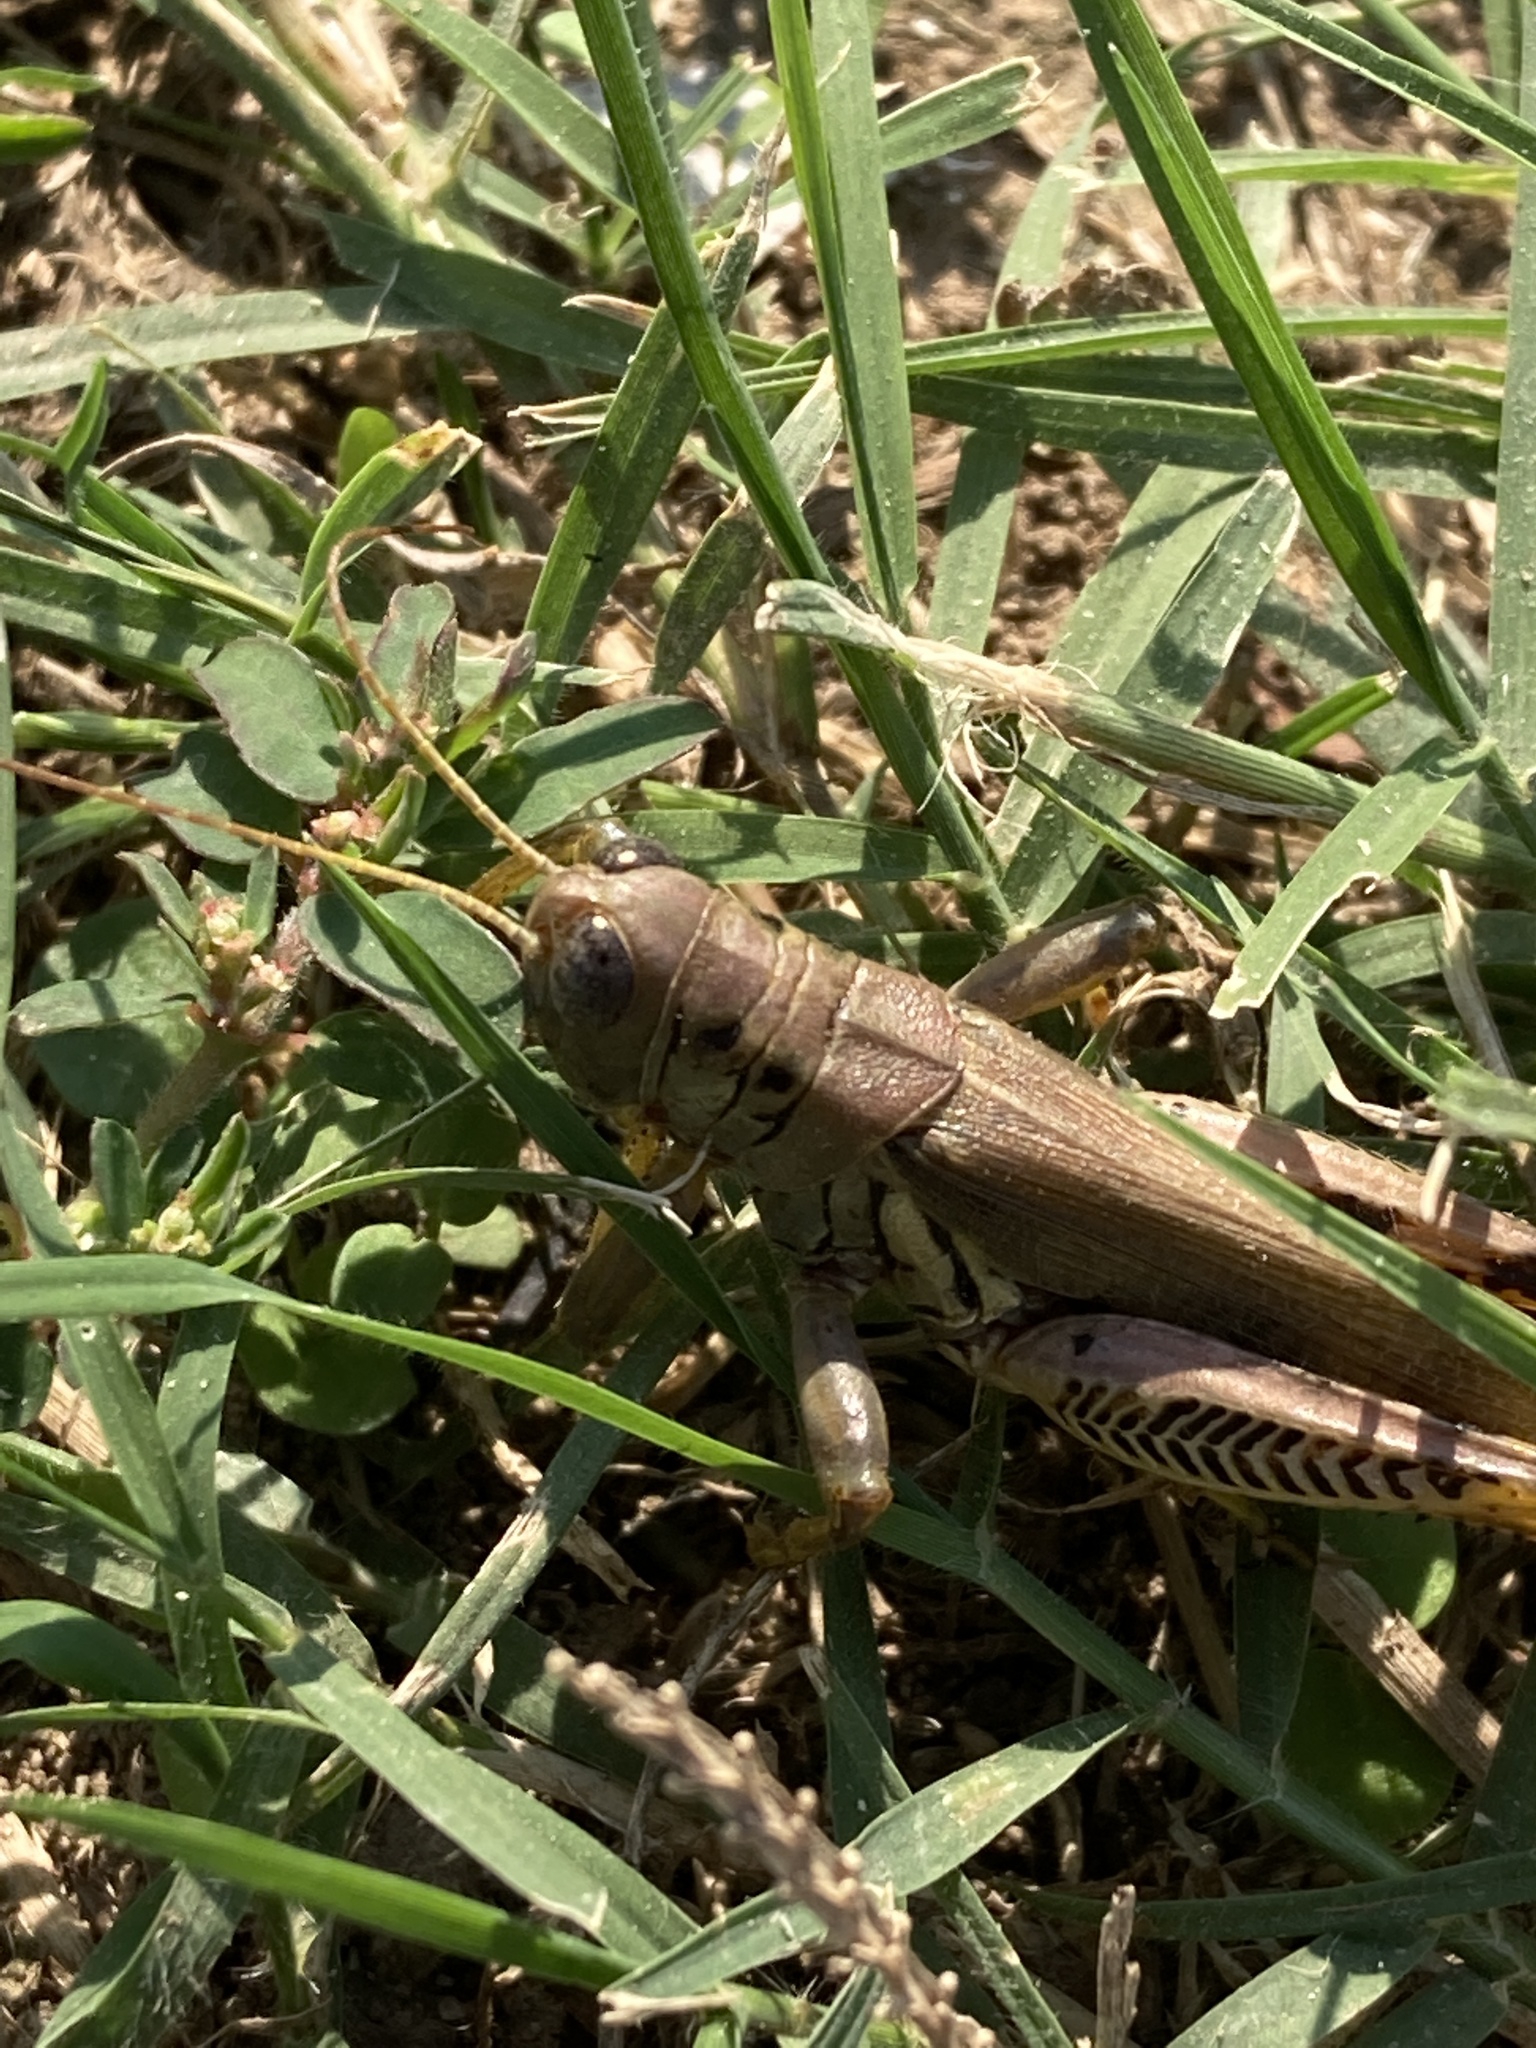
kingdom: Animalia
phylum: Arthropoda
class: Insecta
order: Orthoptera
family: Acrididae
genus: Melanoplus
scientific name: Melanoplus differentialis
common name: Differential grasshopper
